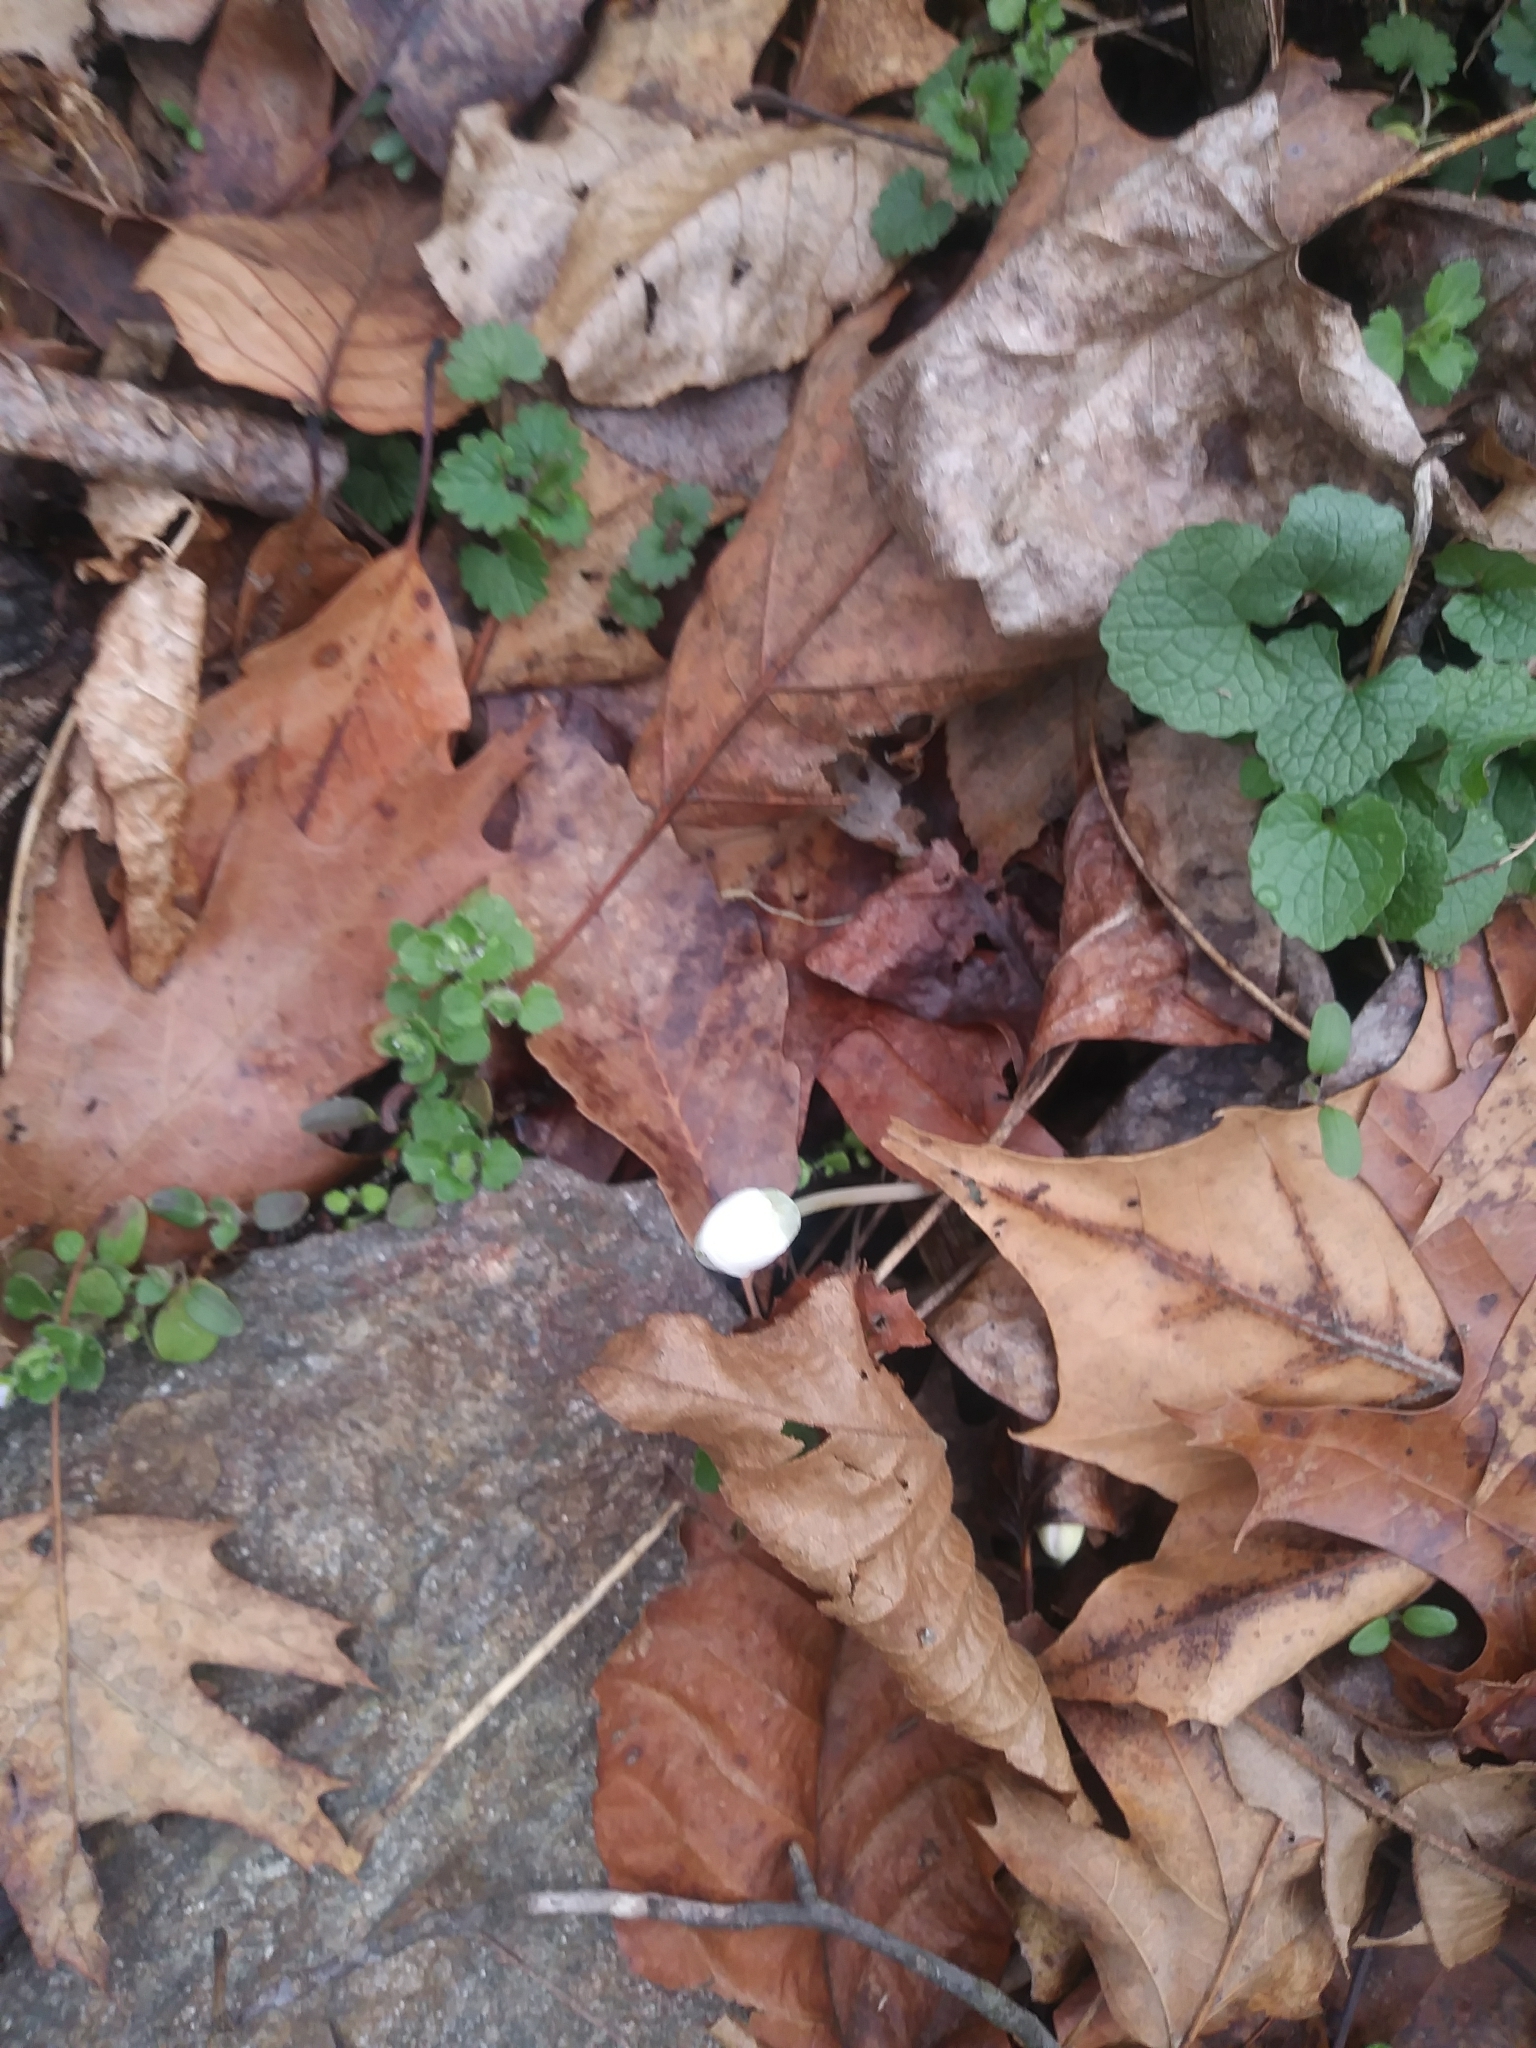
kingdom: Plantae
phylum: Tracheophyta
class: Magnoliopsida
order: Ranunculales
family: Papaveraceae
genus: Sanguinaria
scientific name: Sanguinaria canadensis
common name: Bloodroot
